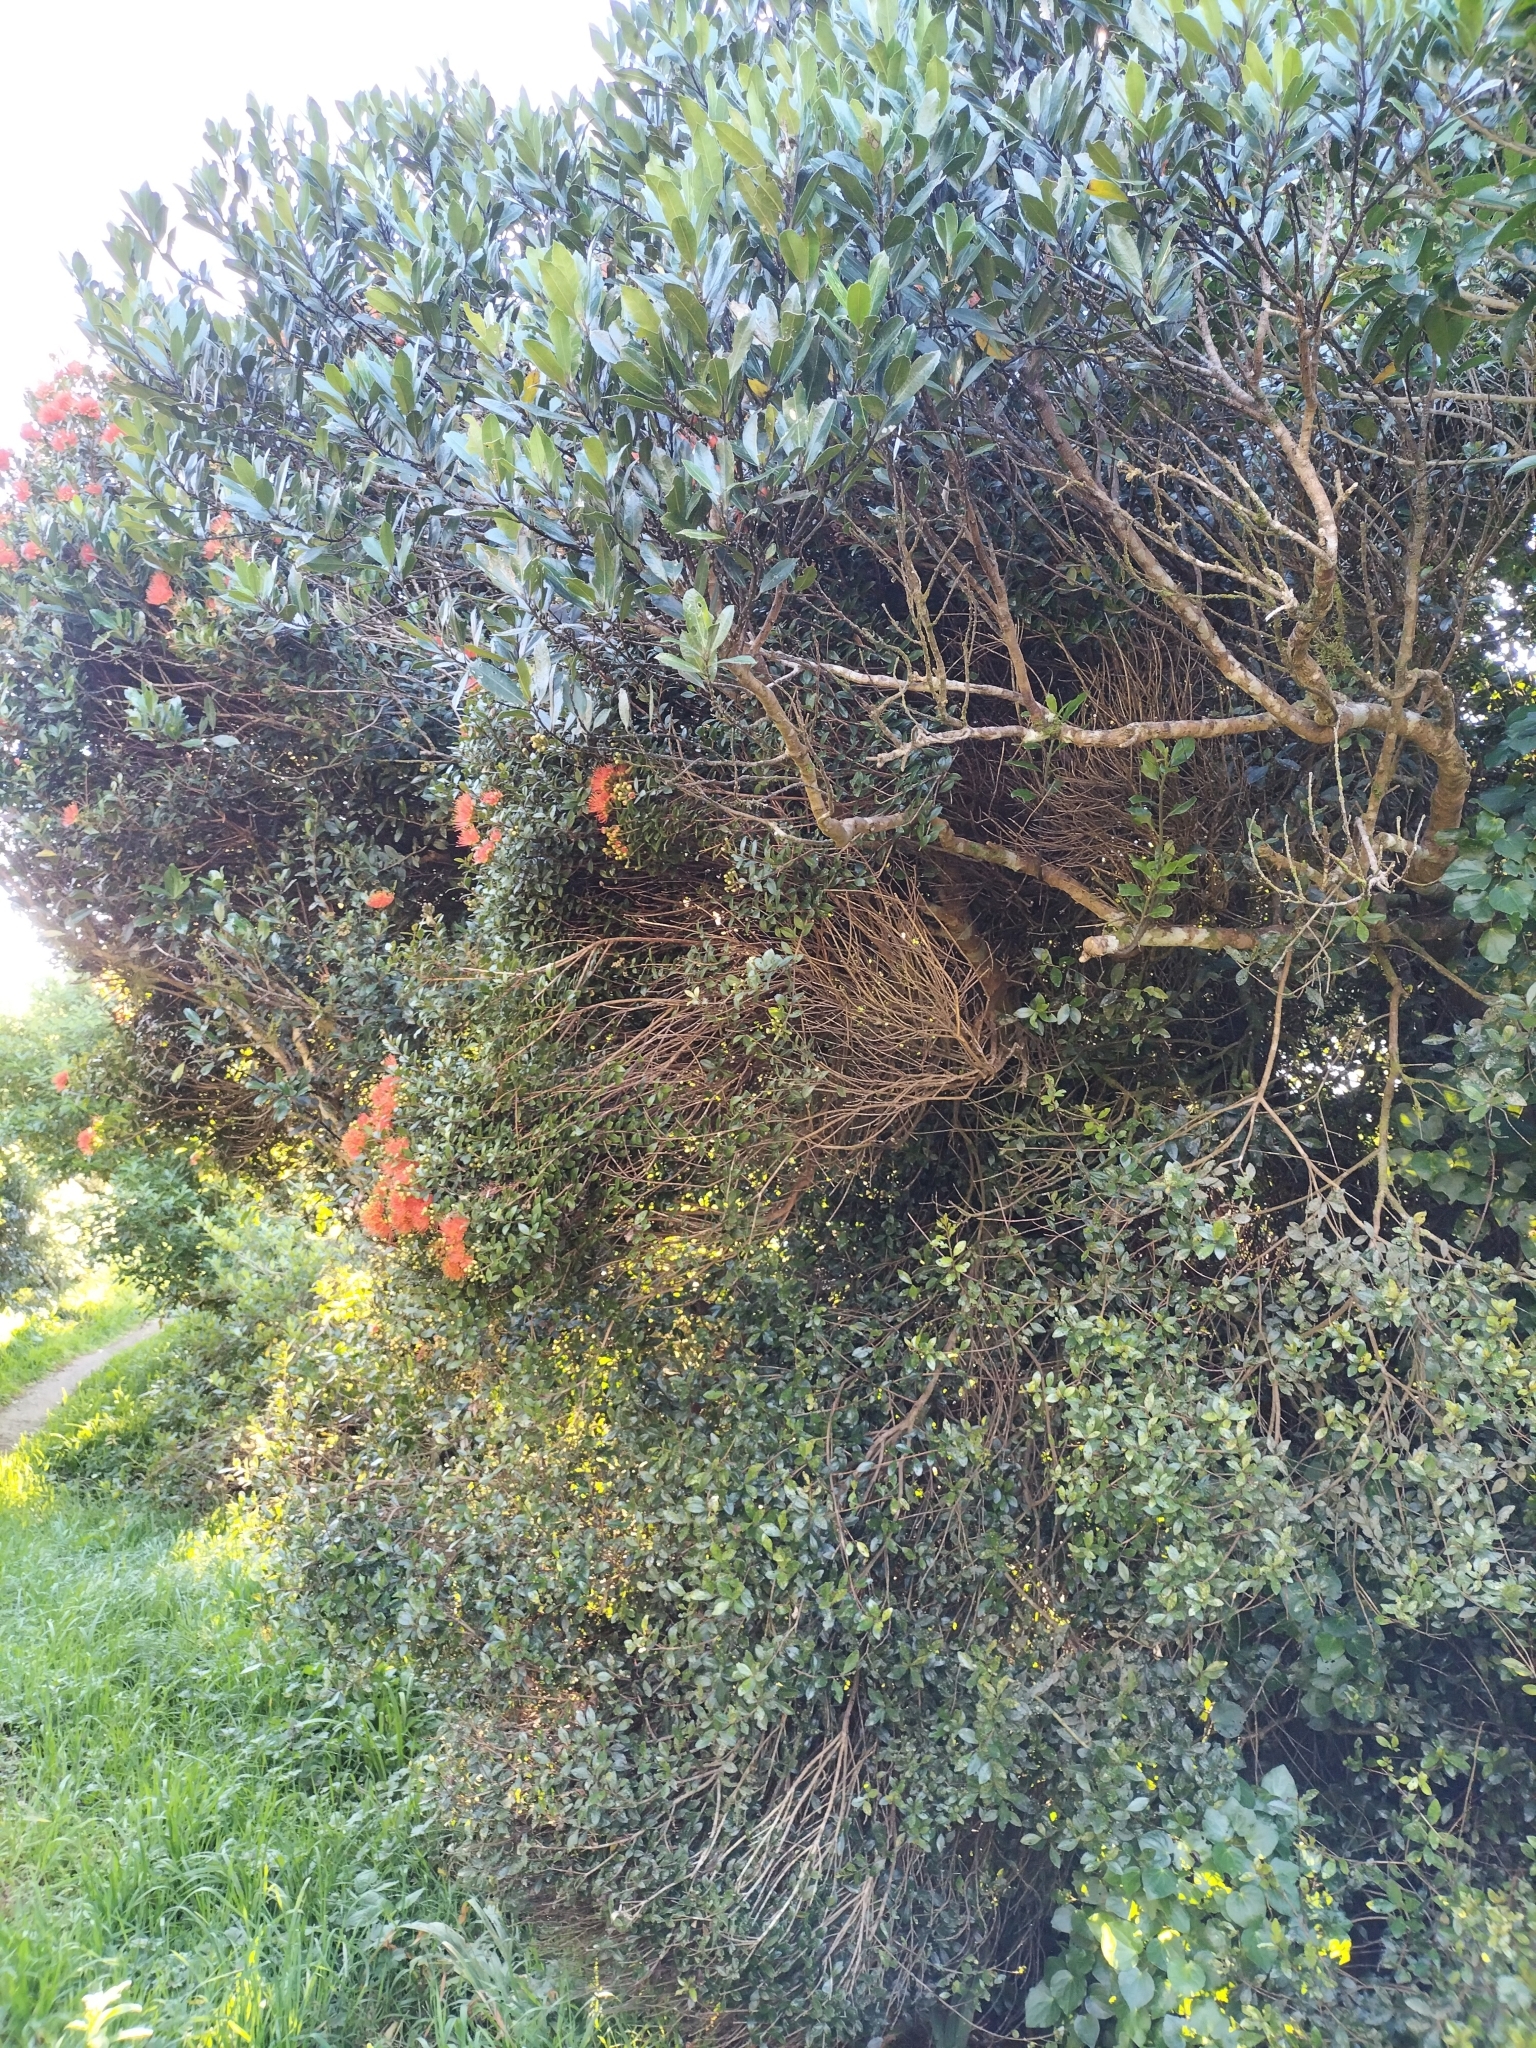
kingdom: Plantae
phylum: Tracheophyta
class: Magnoliopsida
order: Myrtales
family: Myrtaceae
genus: Metrosideros
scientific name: Metrosideros fulgens
